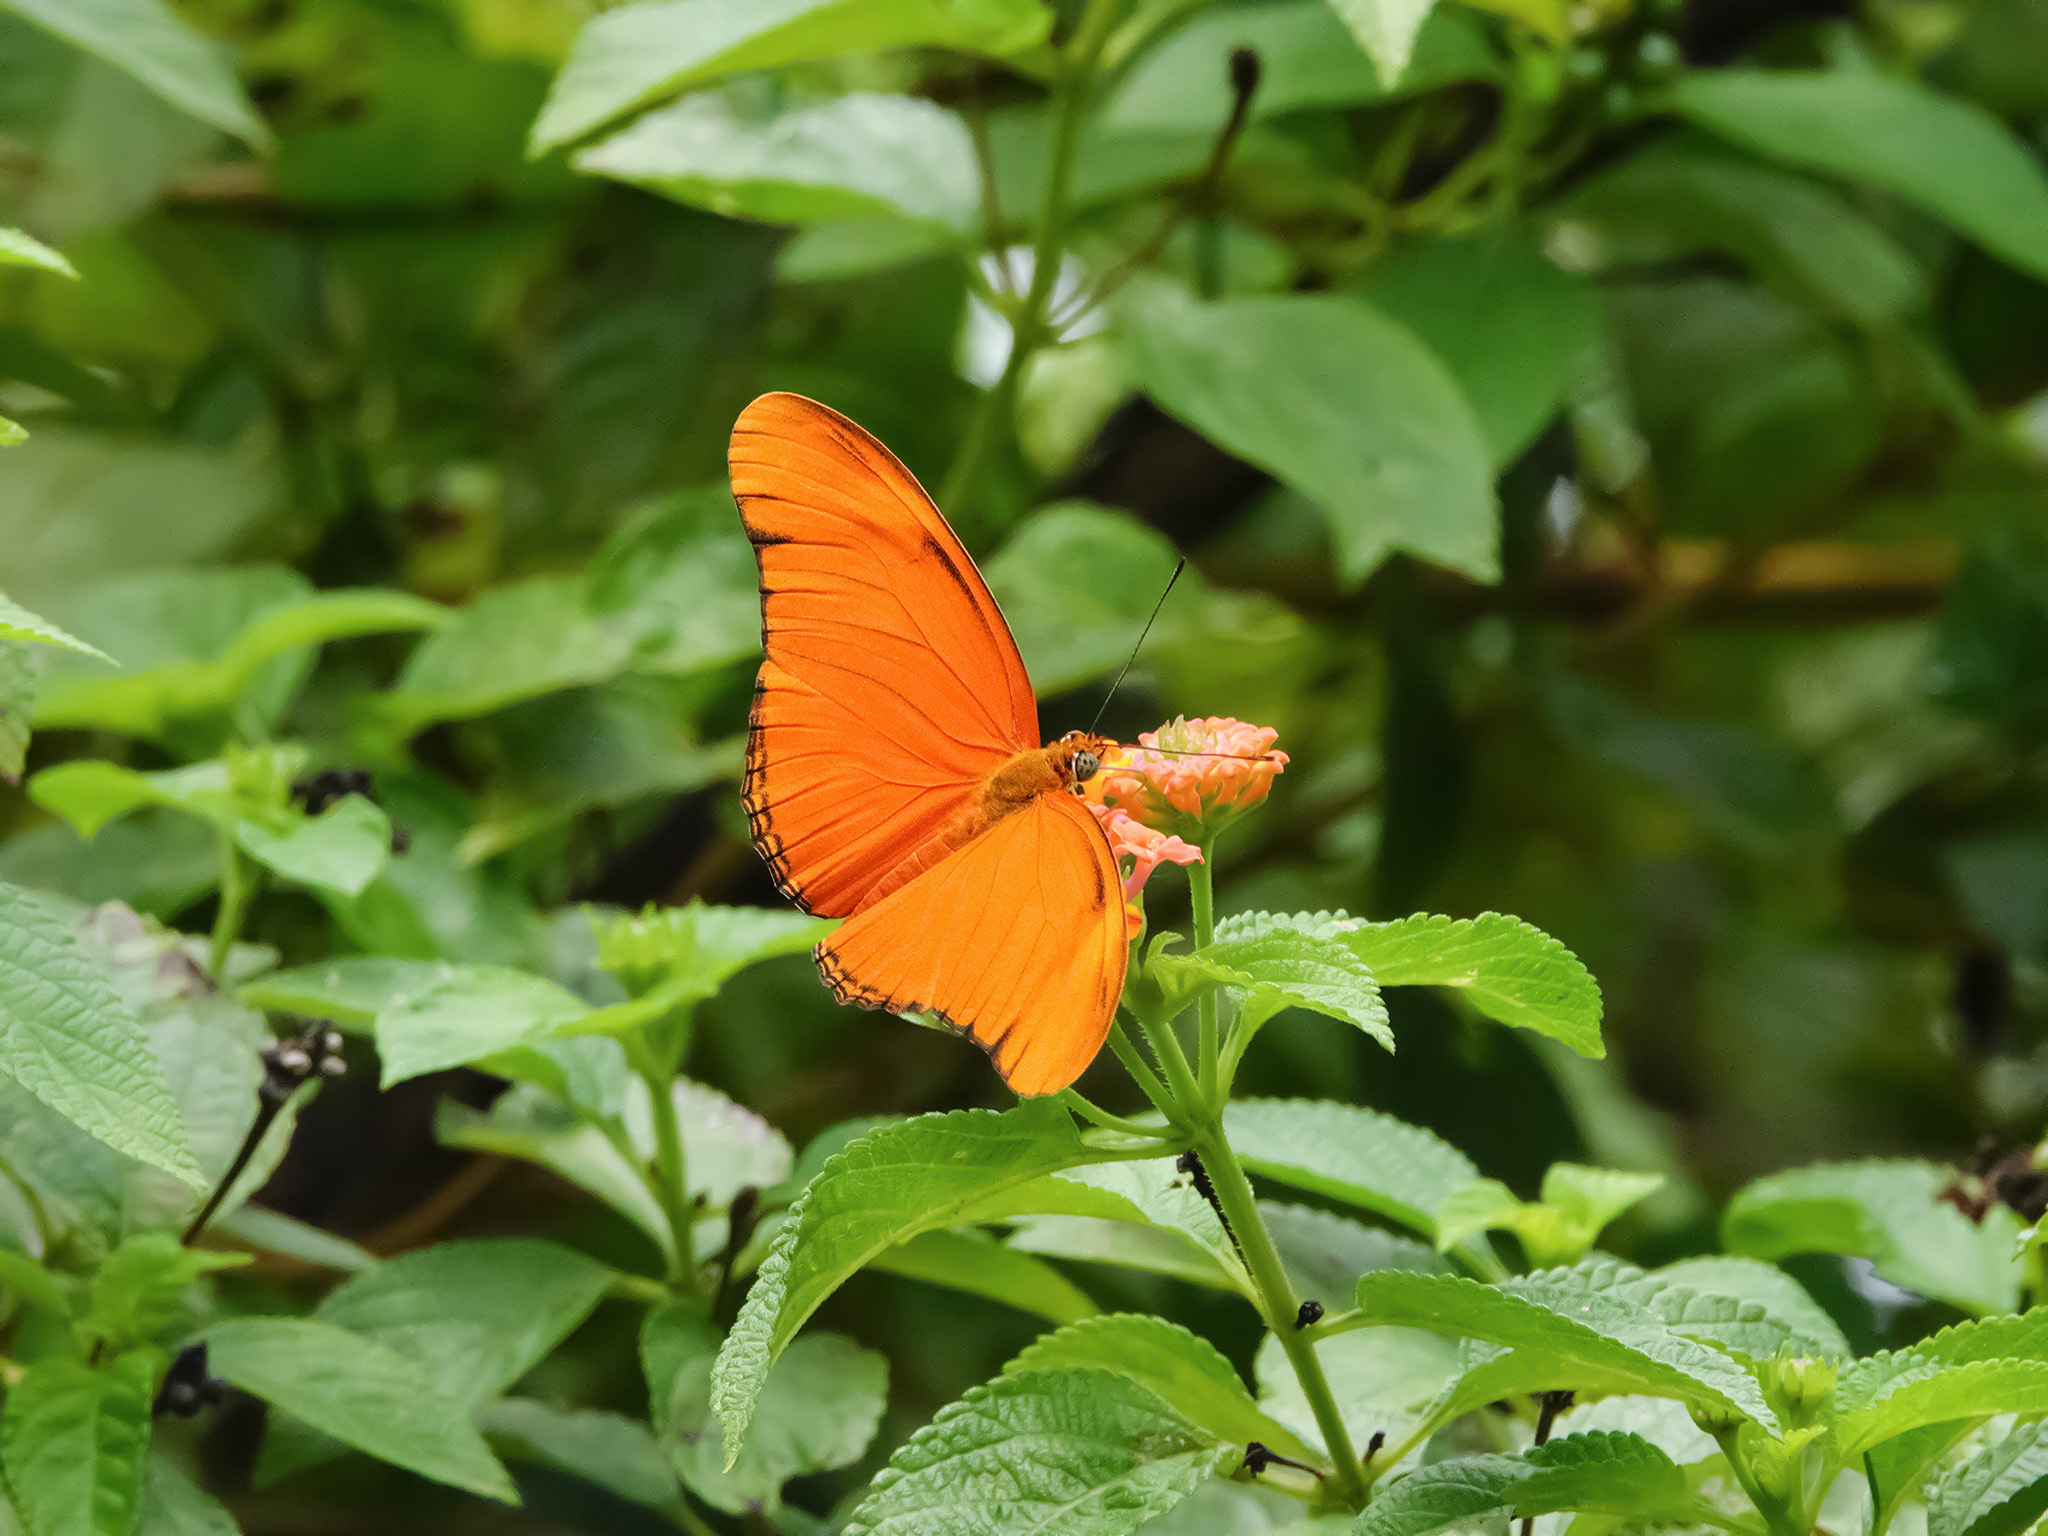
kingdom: Animalia
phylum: Arthropoda
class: Insecta
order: Lepidoptera
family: Nymphalidae
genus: Dryas
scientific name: Dryas iulia
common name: Flambeau
